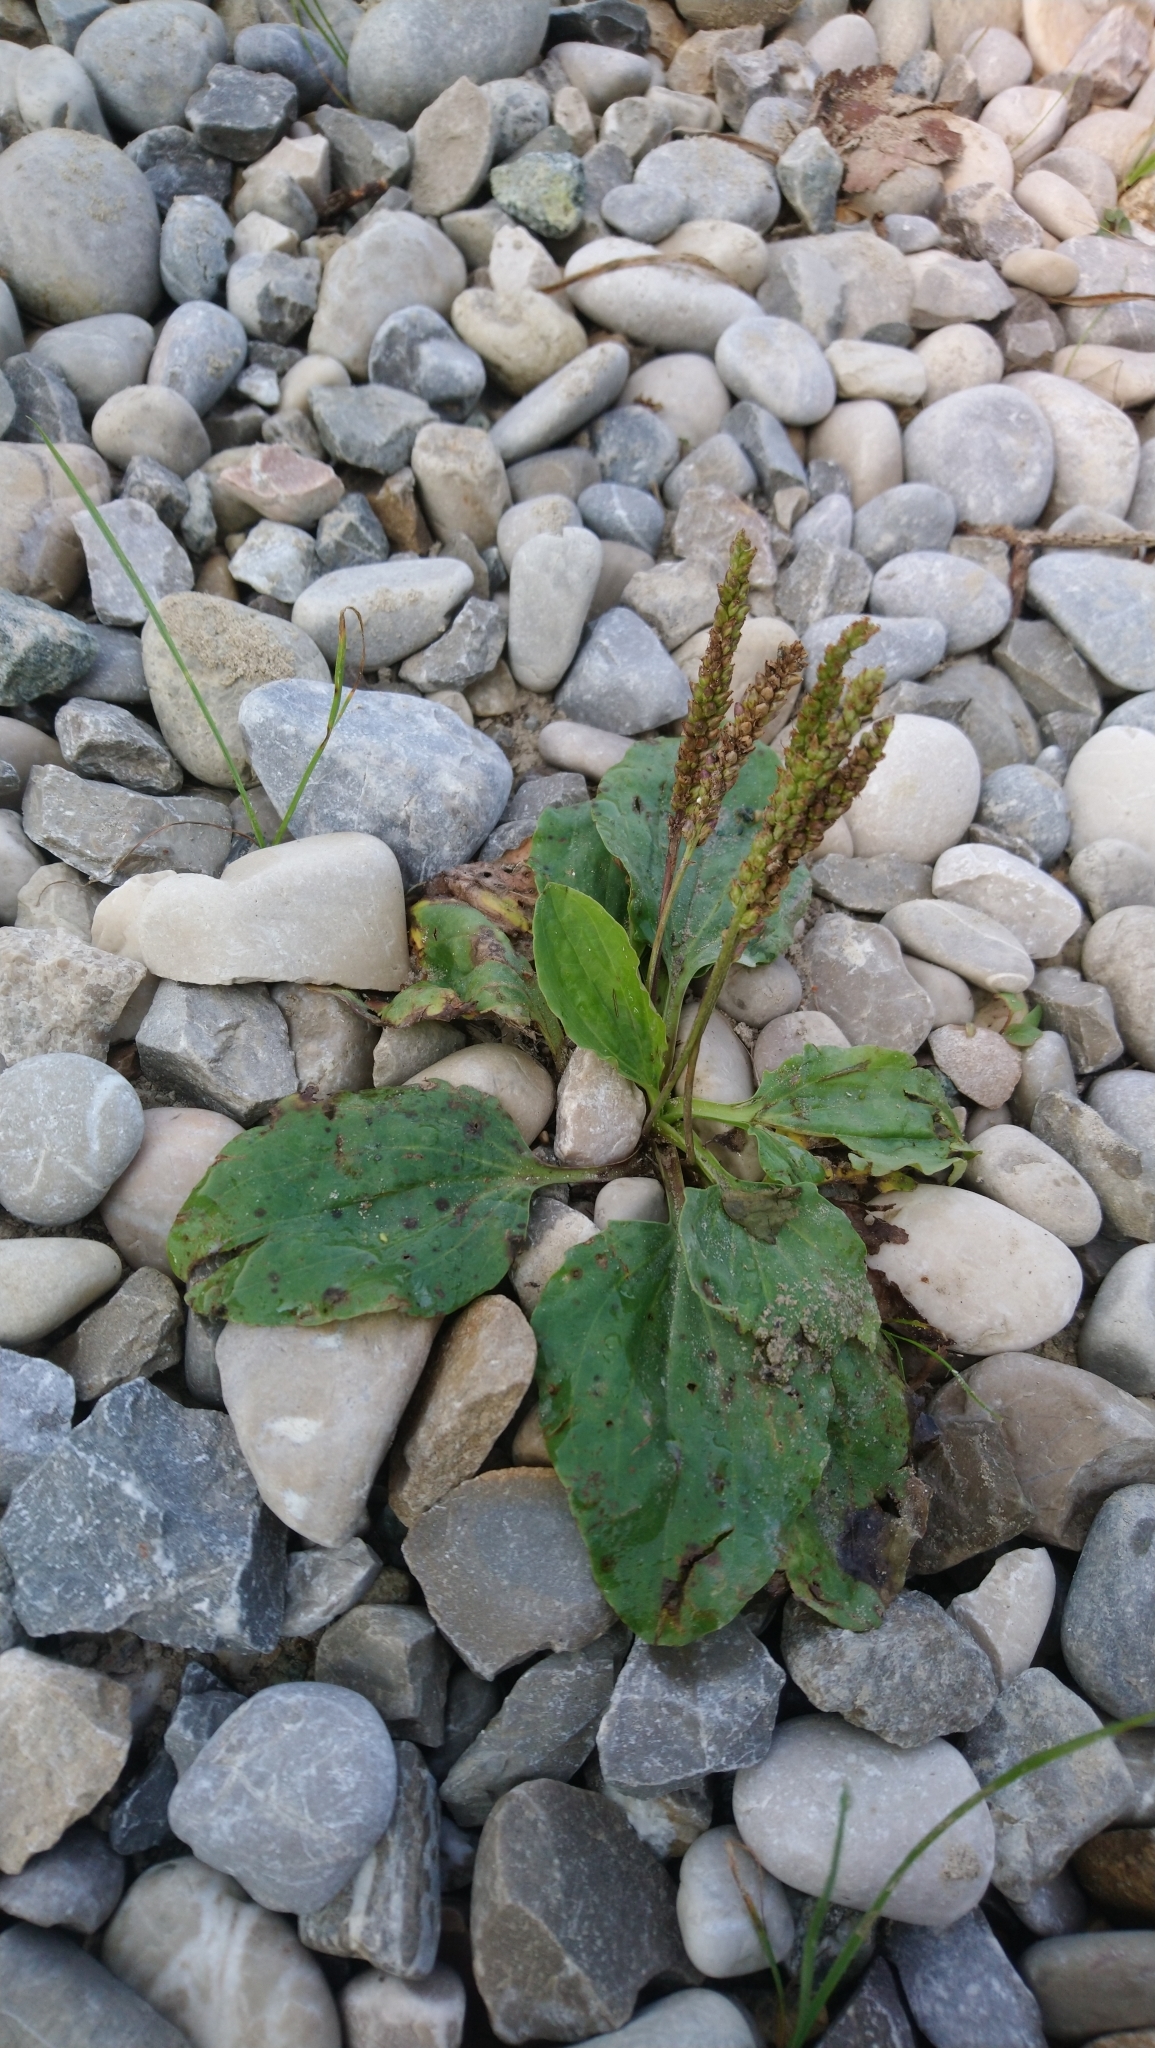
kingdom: Plantae
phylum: Tracheophyta
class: Magnoliopsida
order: Lamiales
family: Plantaginaceae
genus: Plantago
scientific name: Plantago major
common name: Common plantain
